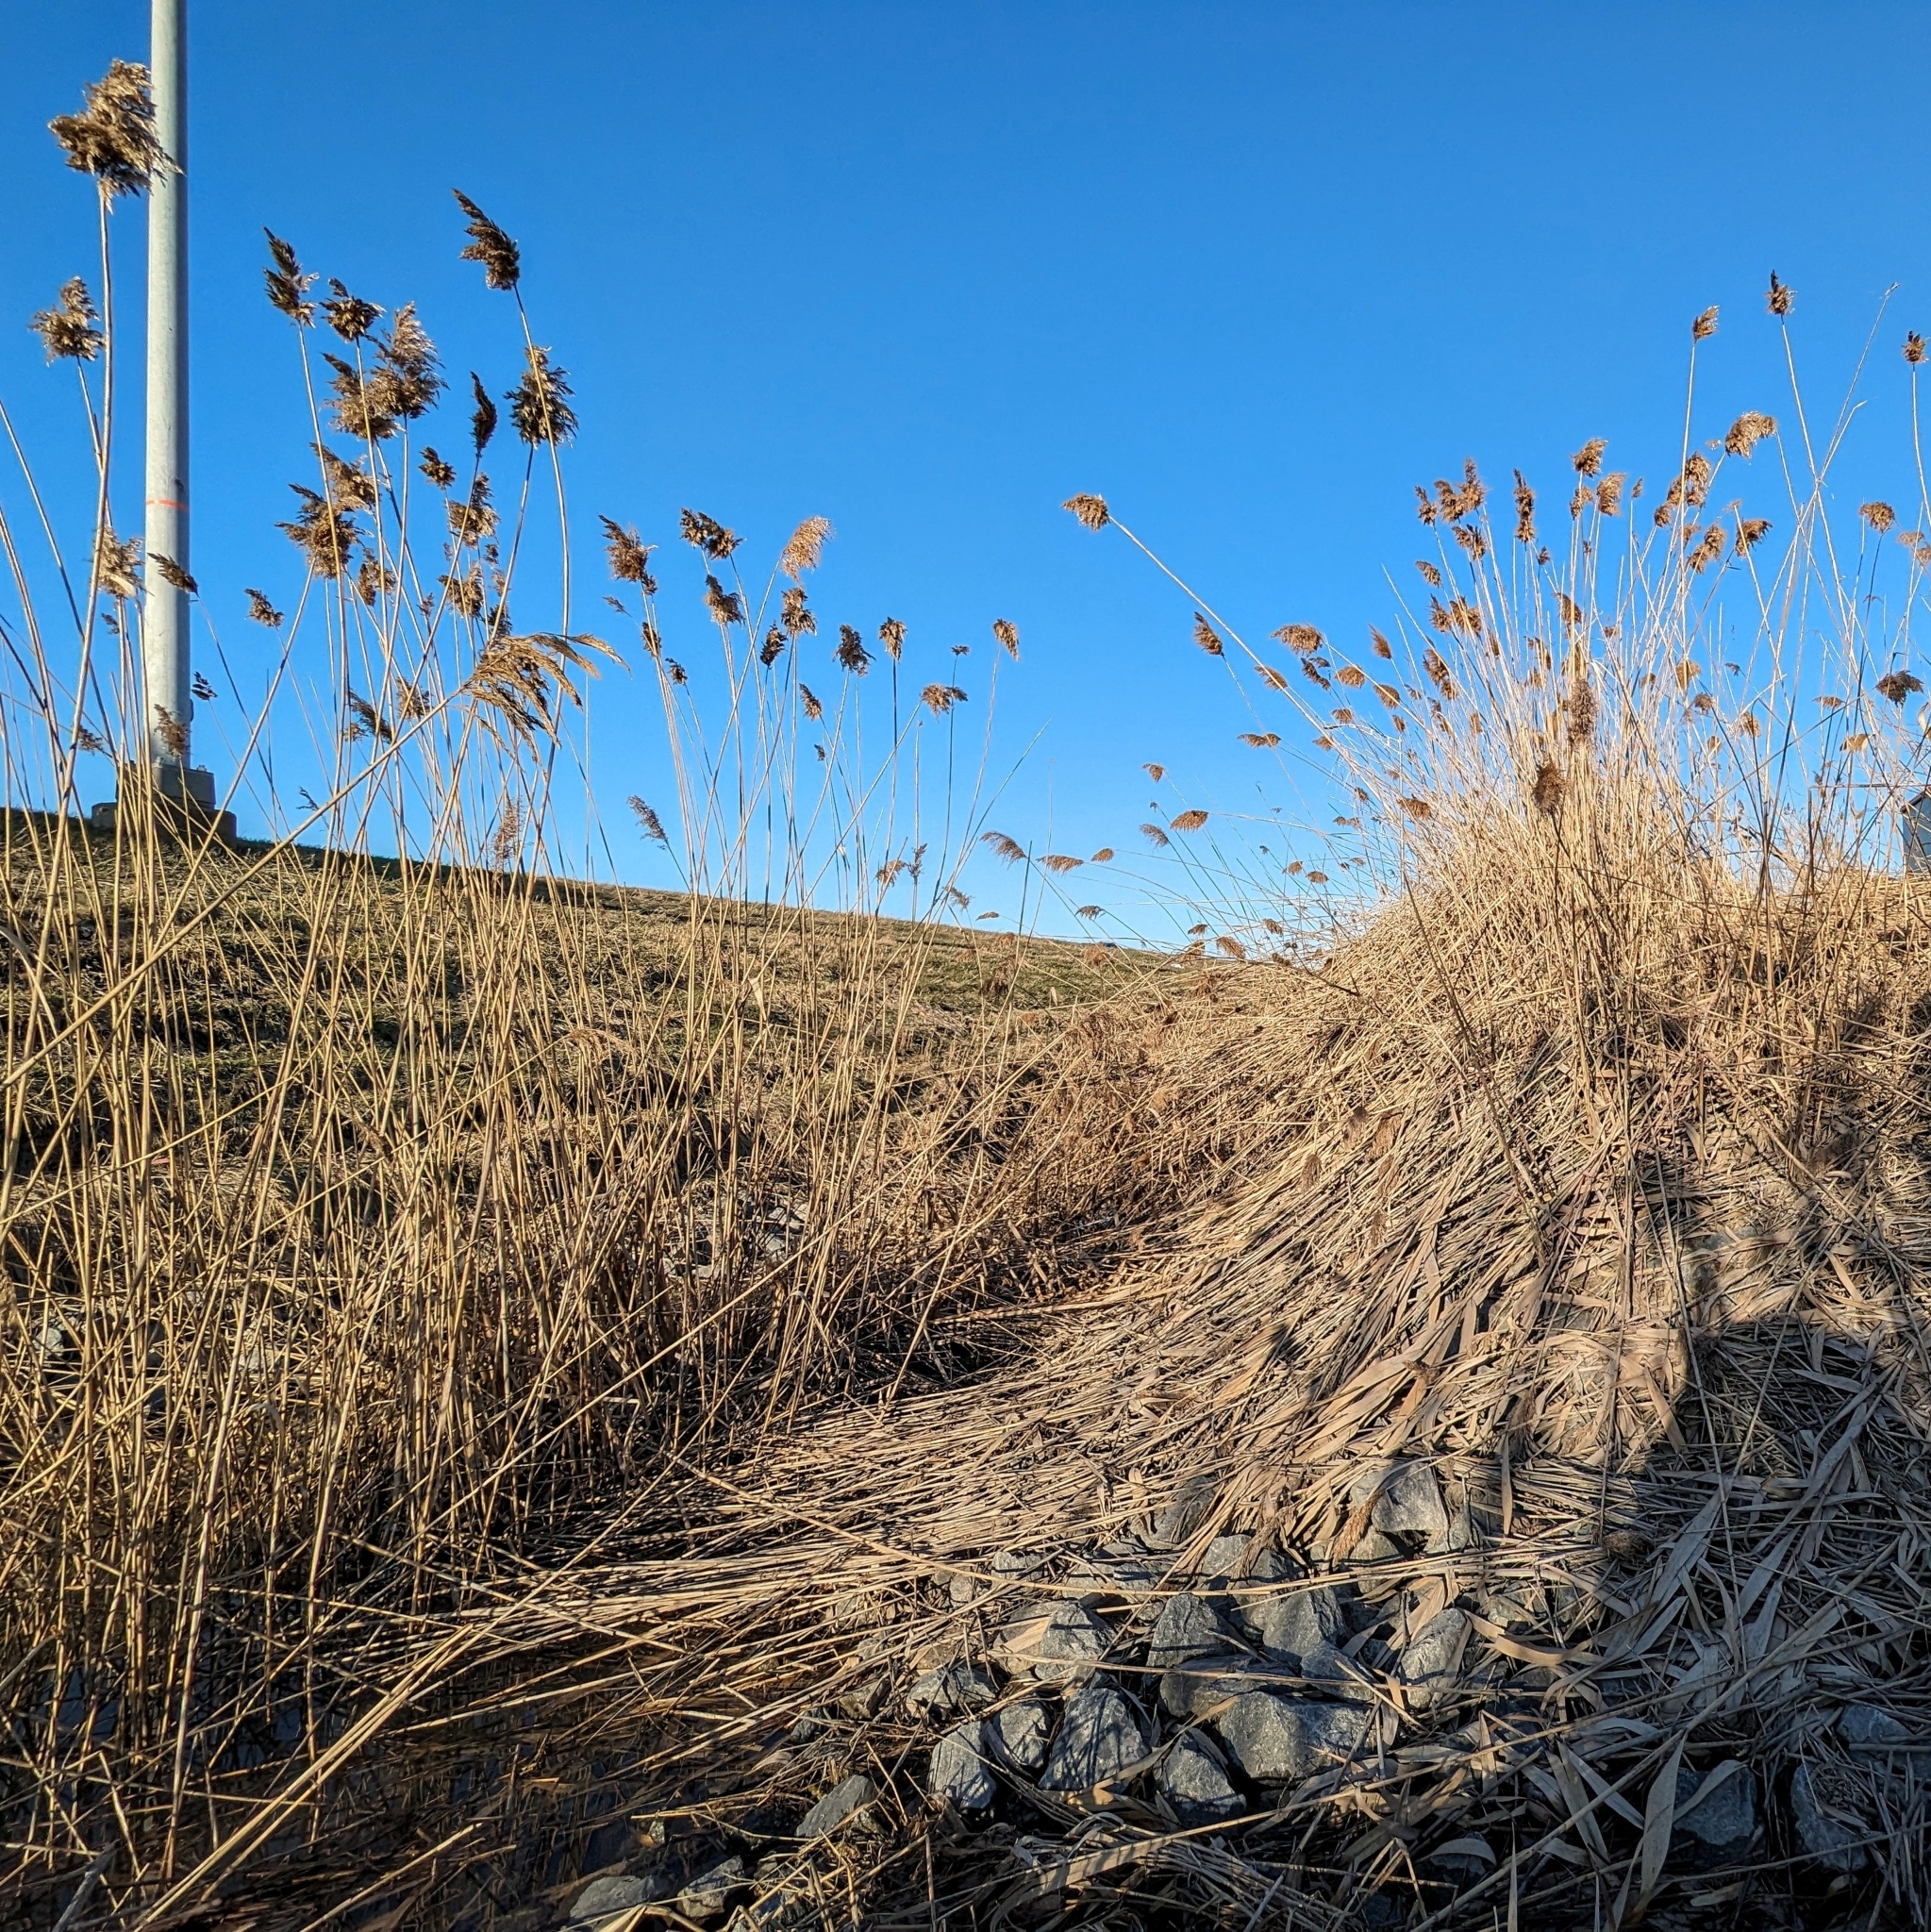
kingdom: Plantae
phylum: Tracheophyta
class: Liliopsida
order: Poales
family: Poaceae
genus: Phragmites
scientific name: Phragmites australis
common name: Common reed
